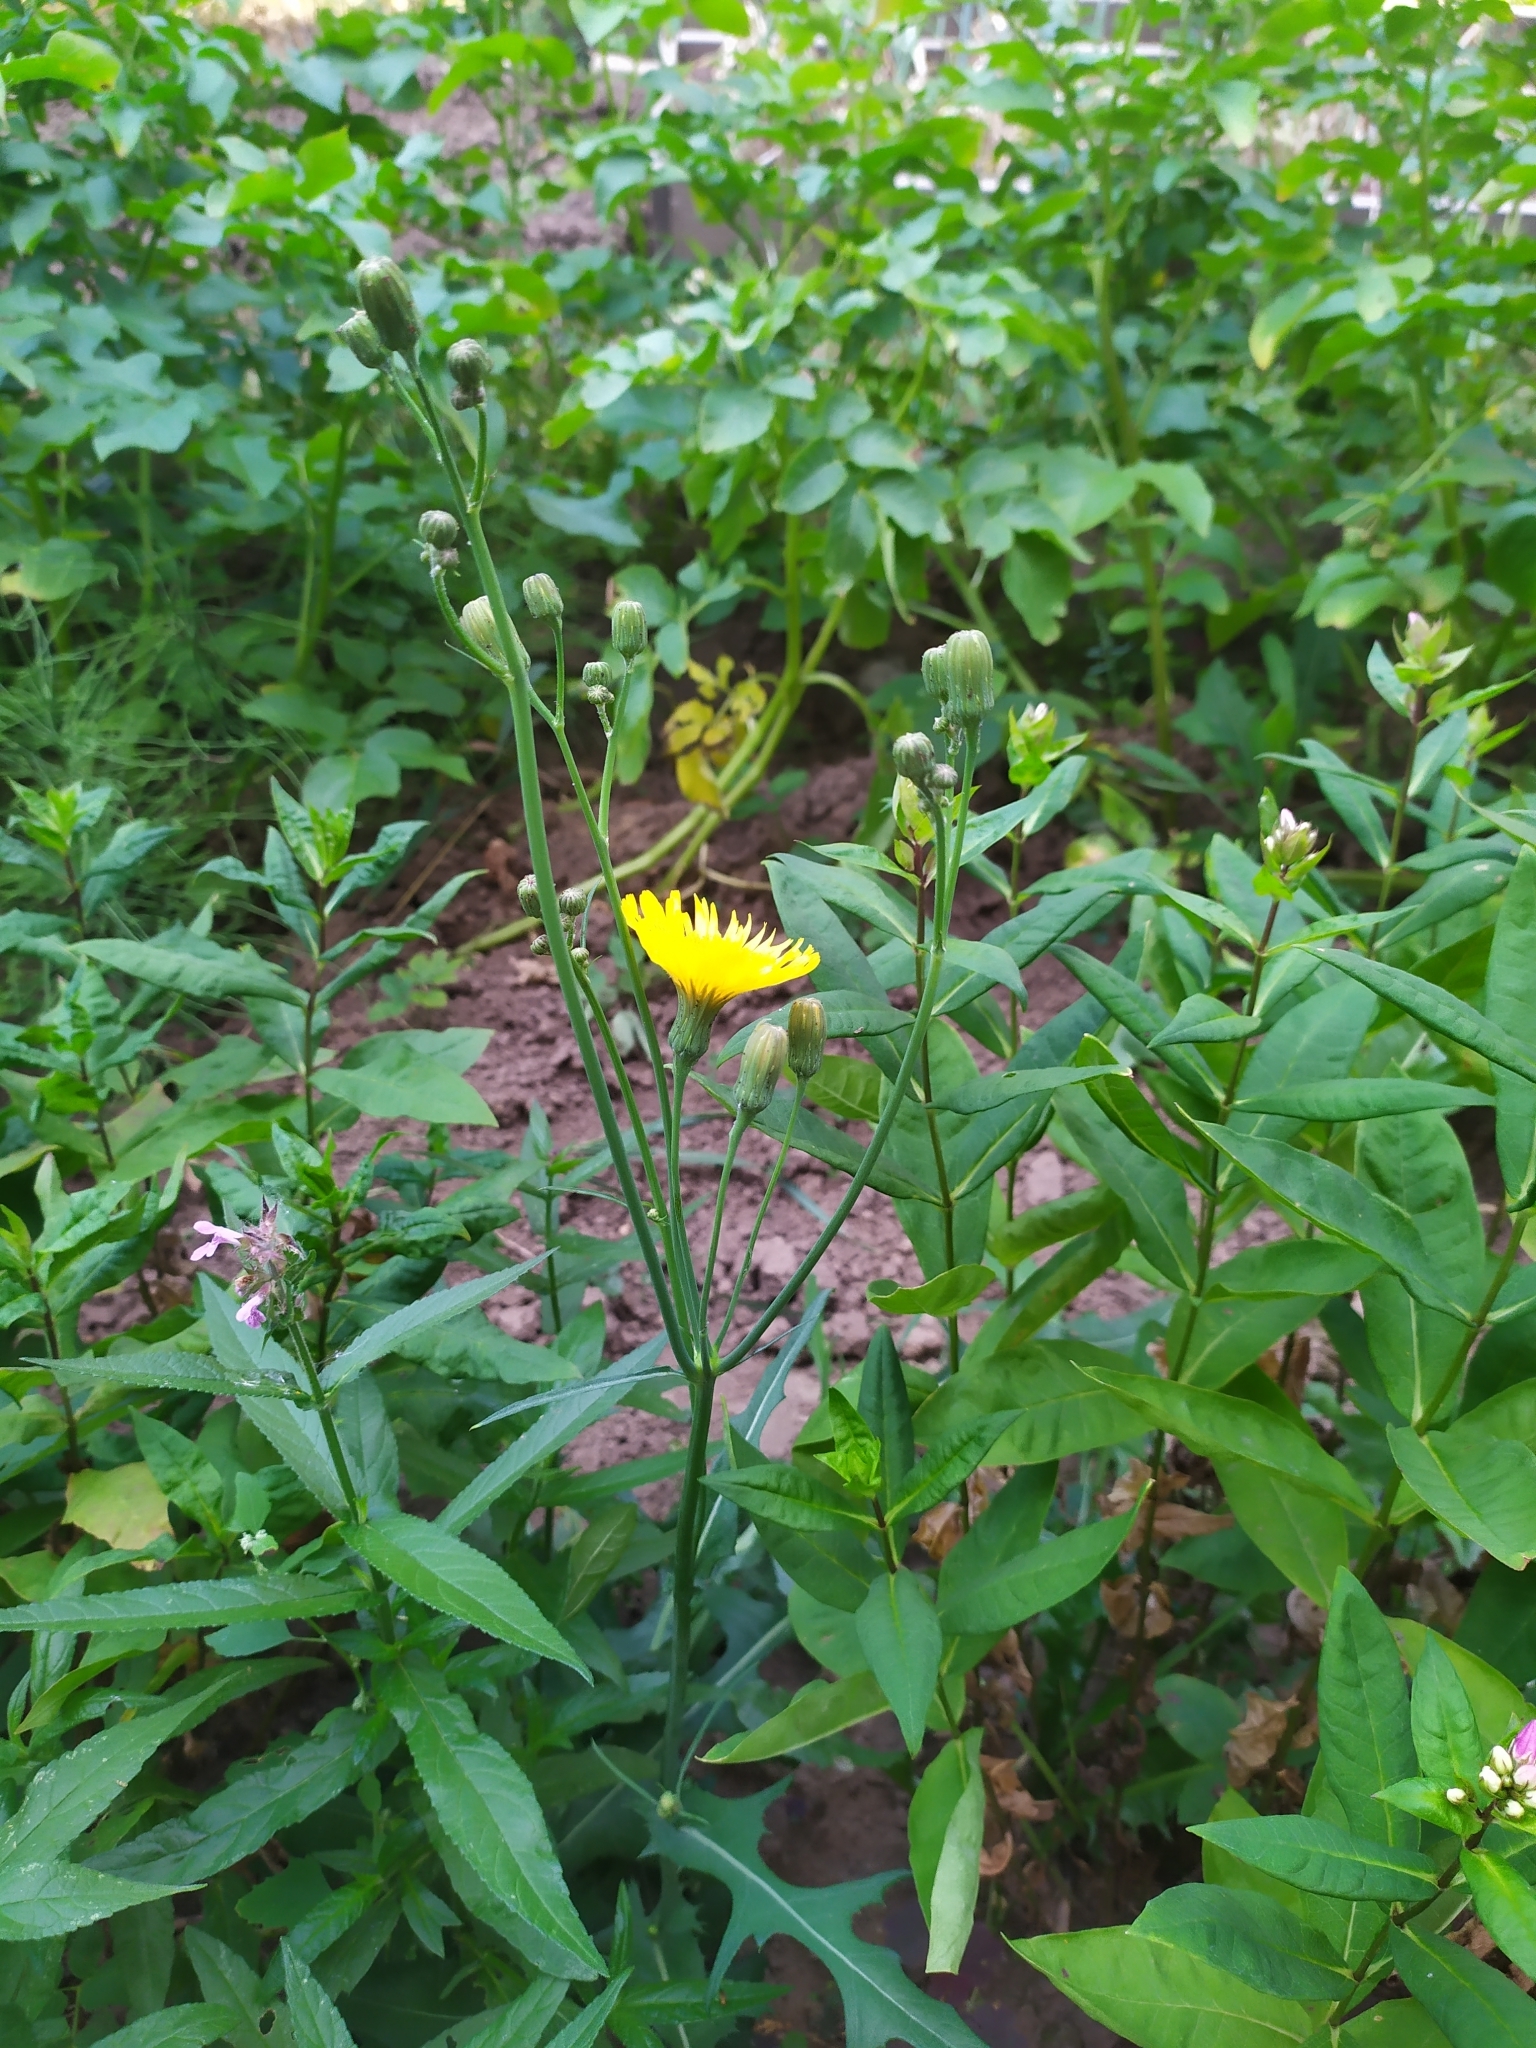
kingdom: Plantae
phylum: Tracheophyta
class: Magnoliopsida
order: Asterales
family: Asteraceae
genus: Sonchus
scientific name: Sonchus arvensis
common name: Perennial sow-thistle
